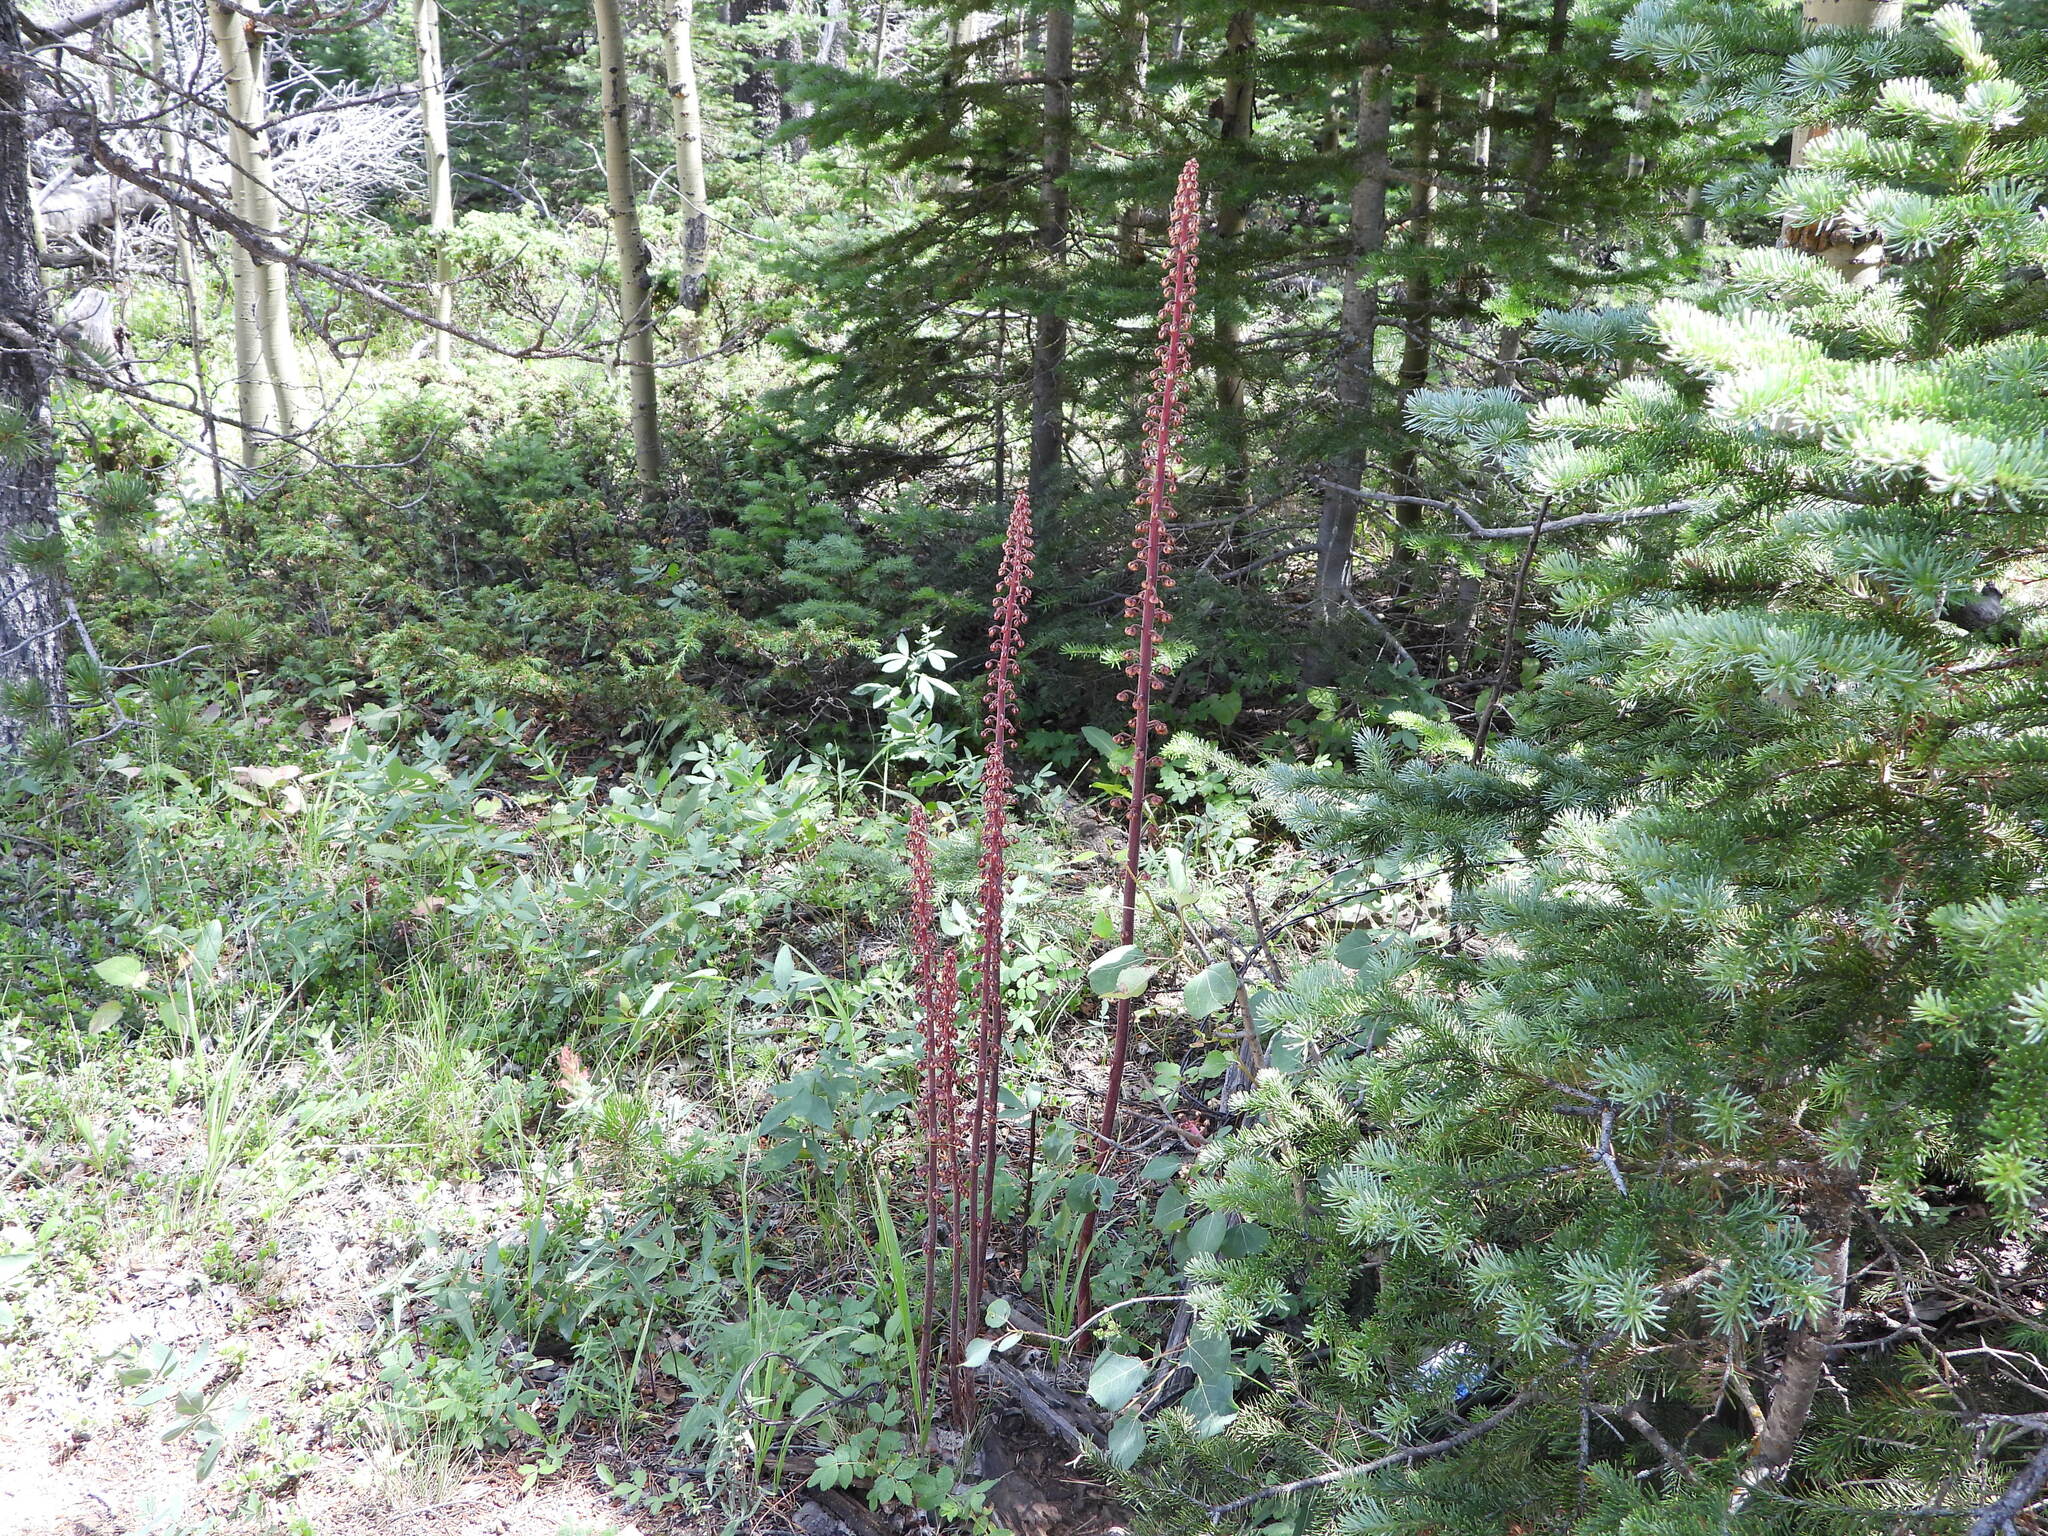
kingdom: Plantae
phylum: Tracheophyta
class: Magnoliopsida
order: Ericales
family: Ericaceae
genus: Pterospora
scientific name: Pterospora andromedea
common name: Giant bird's-nest
